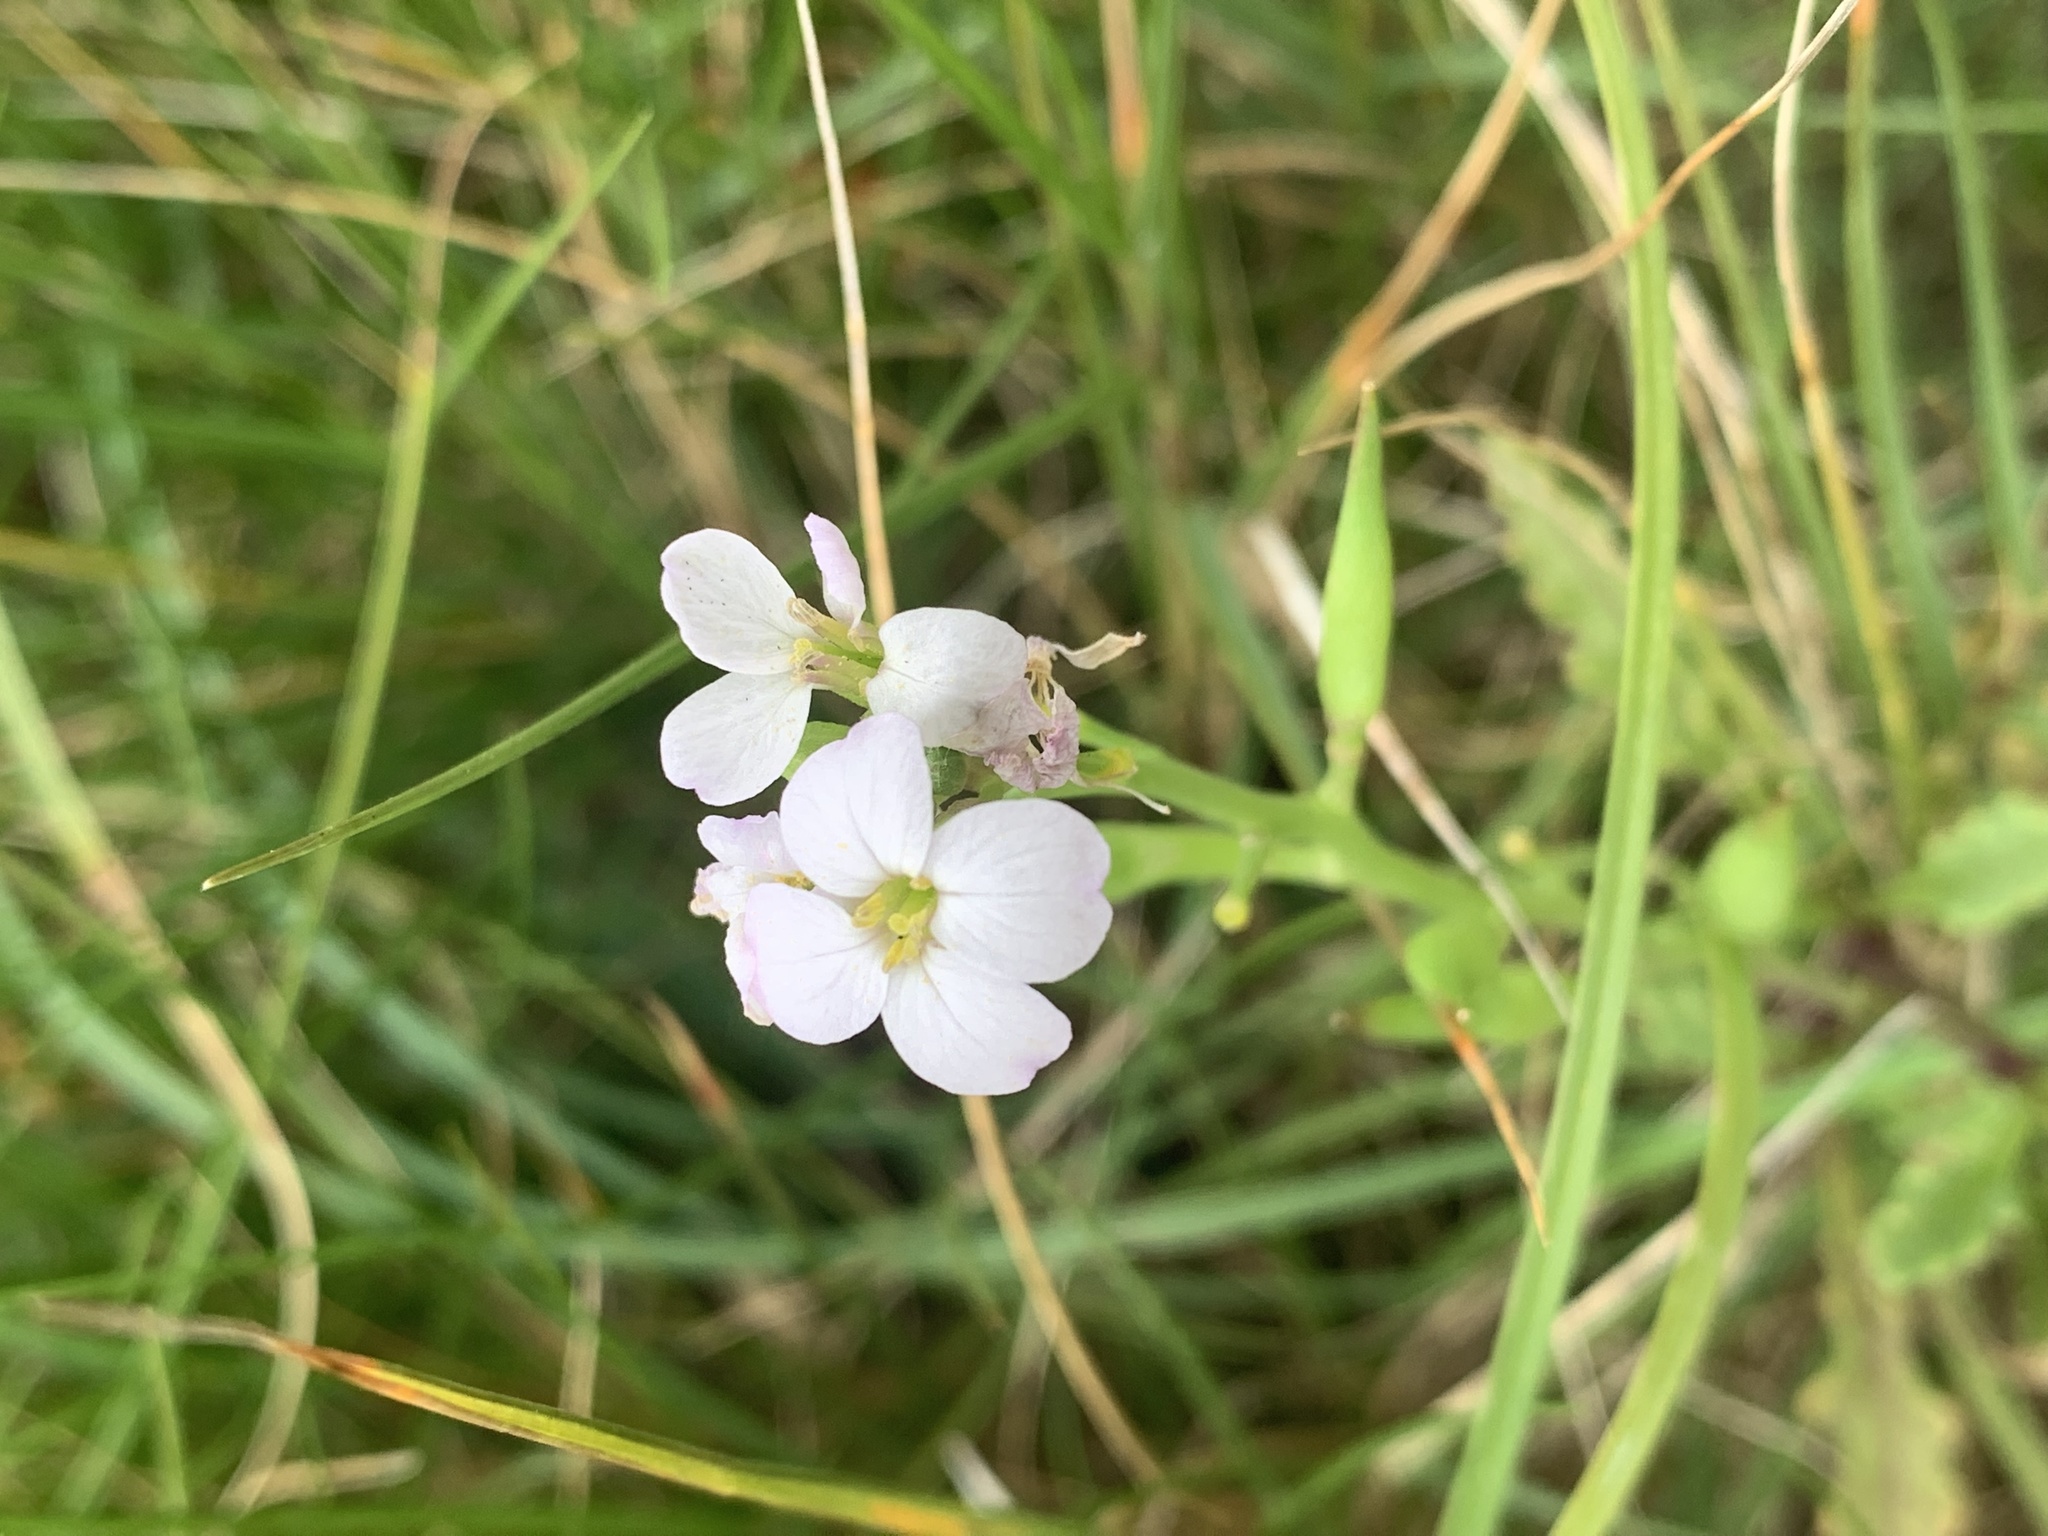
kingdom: Plantae
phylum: Tracheophyta
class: Magnoliopsida
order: Brassicales
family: Brassicaceae
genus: Cakile
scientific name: Cakile maritima
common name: Sea rocket
